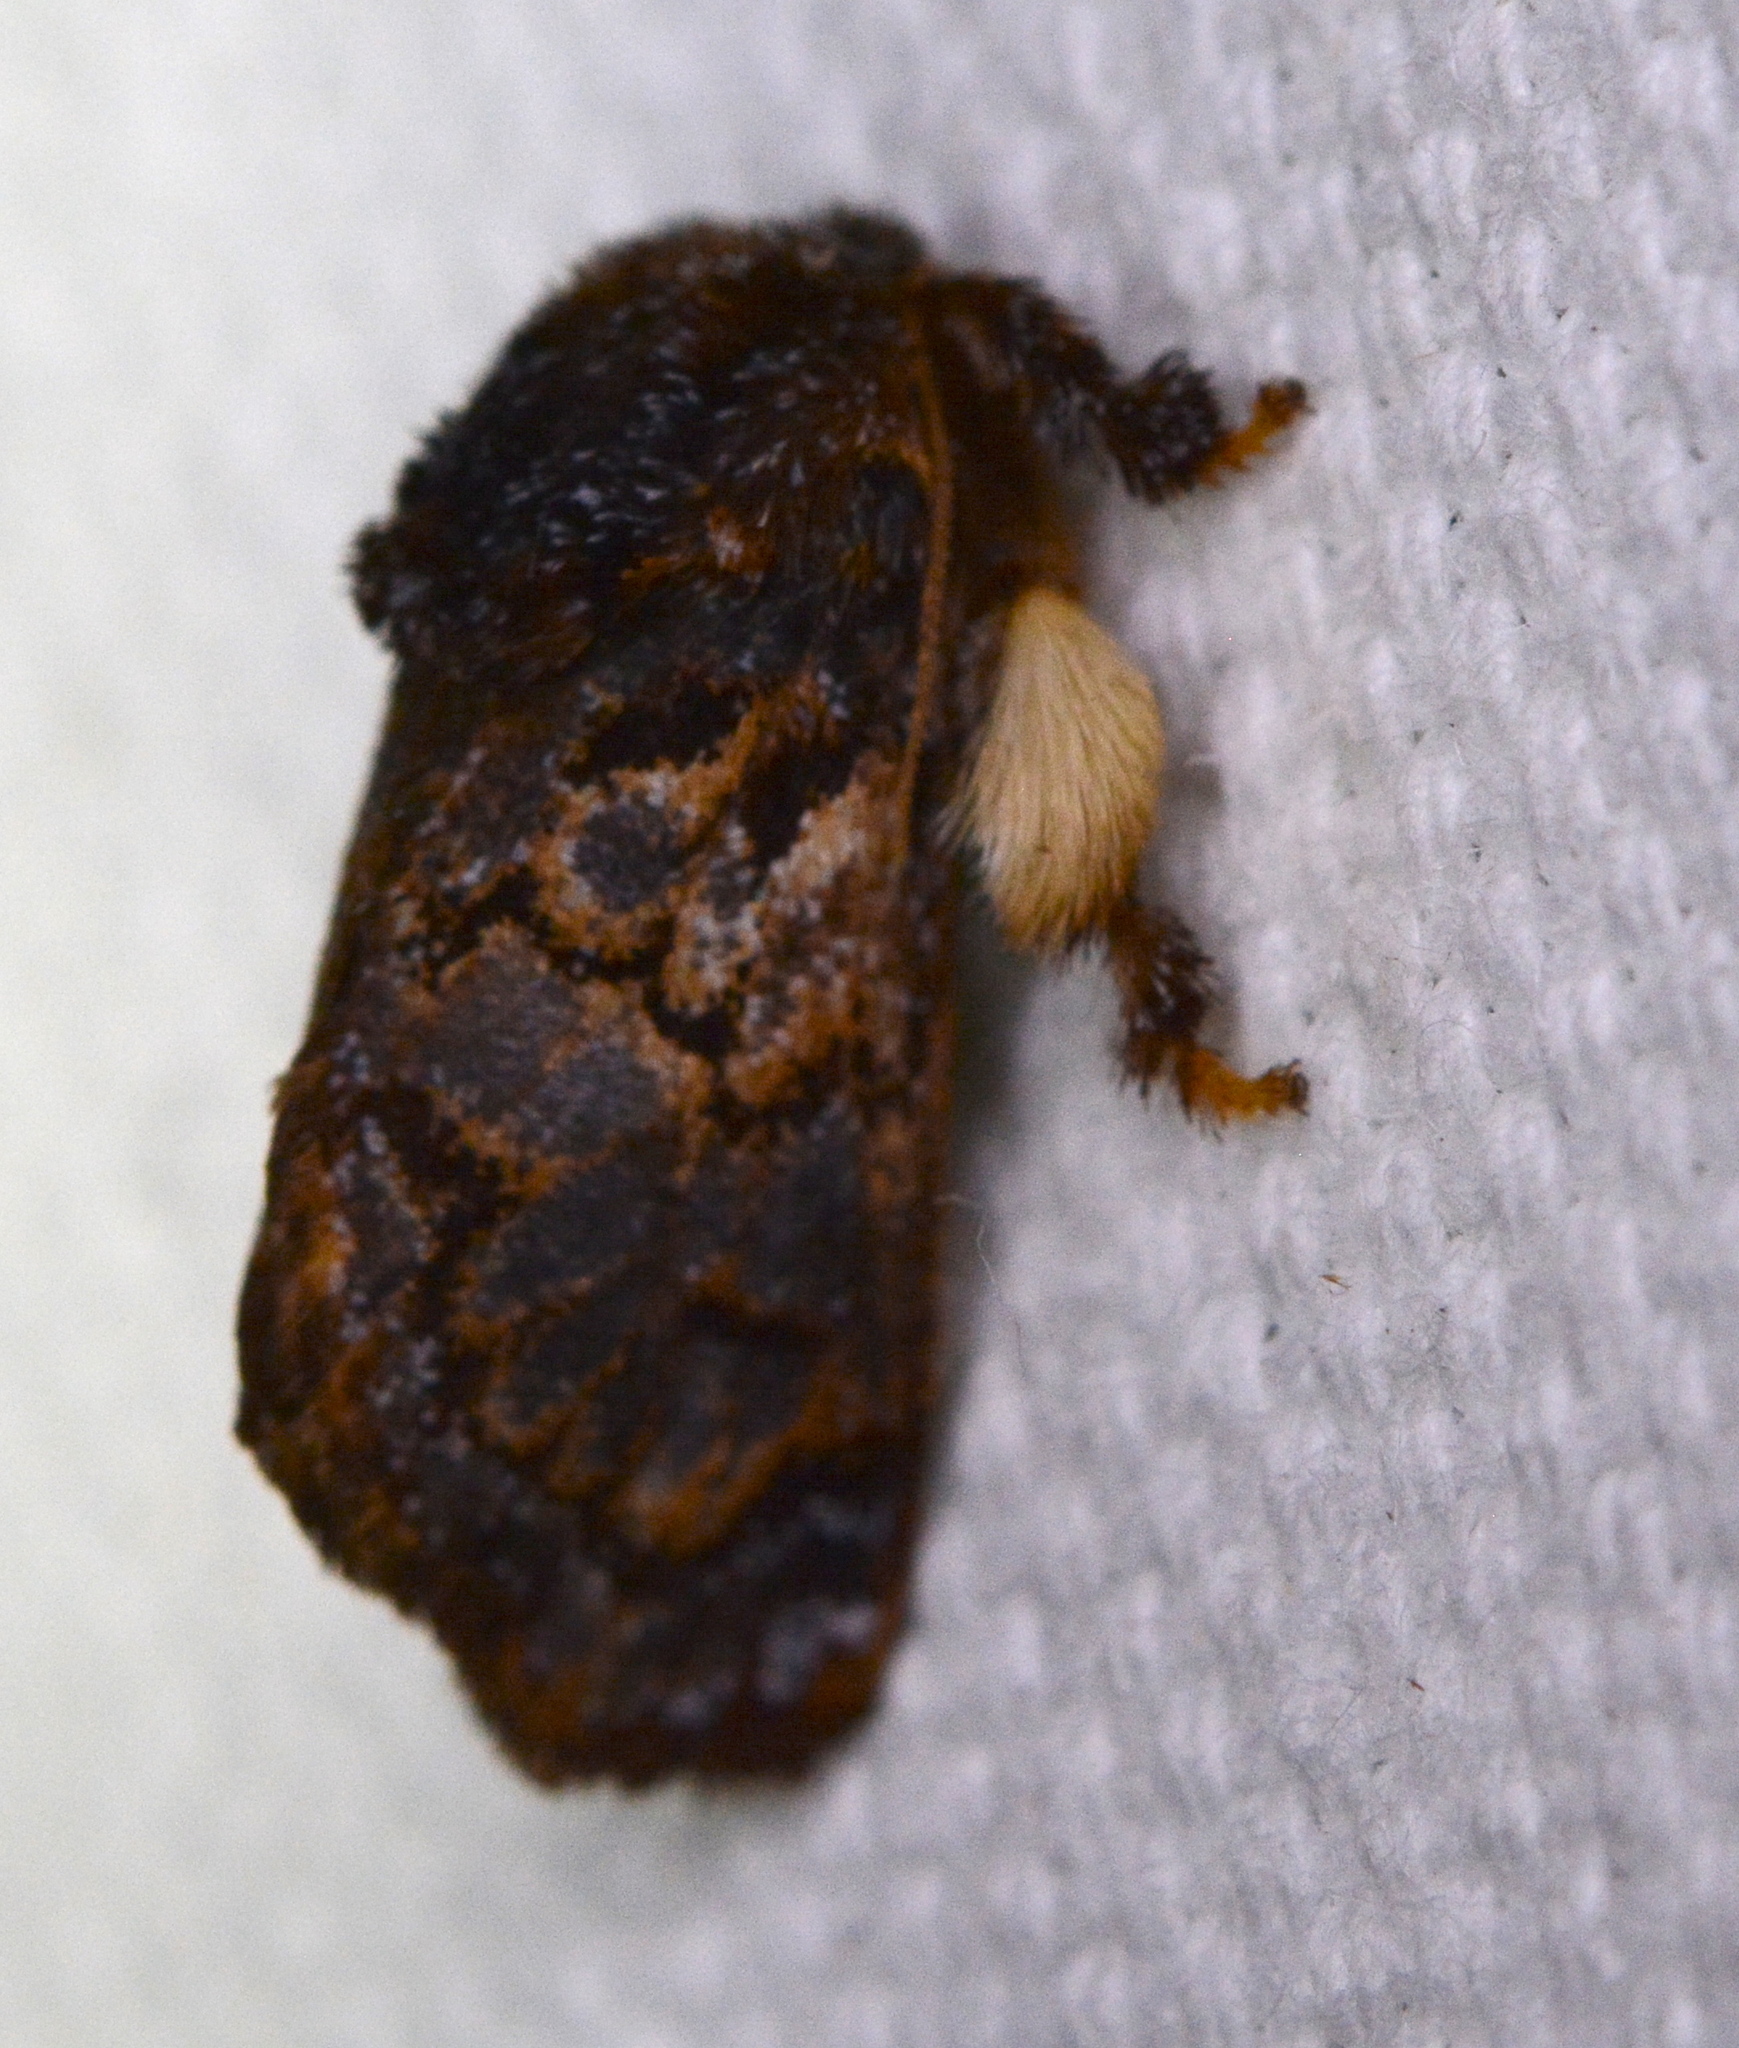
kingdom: Animalia
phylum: Arthropoda
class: Insecta
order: Lepidoptera
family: Limacodidae
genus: Phobetron
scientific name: Phobetron pithecium
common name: Hag moth
